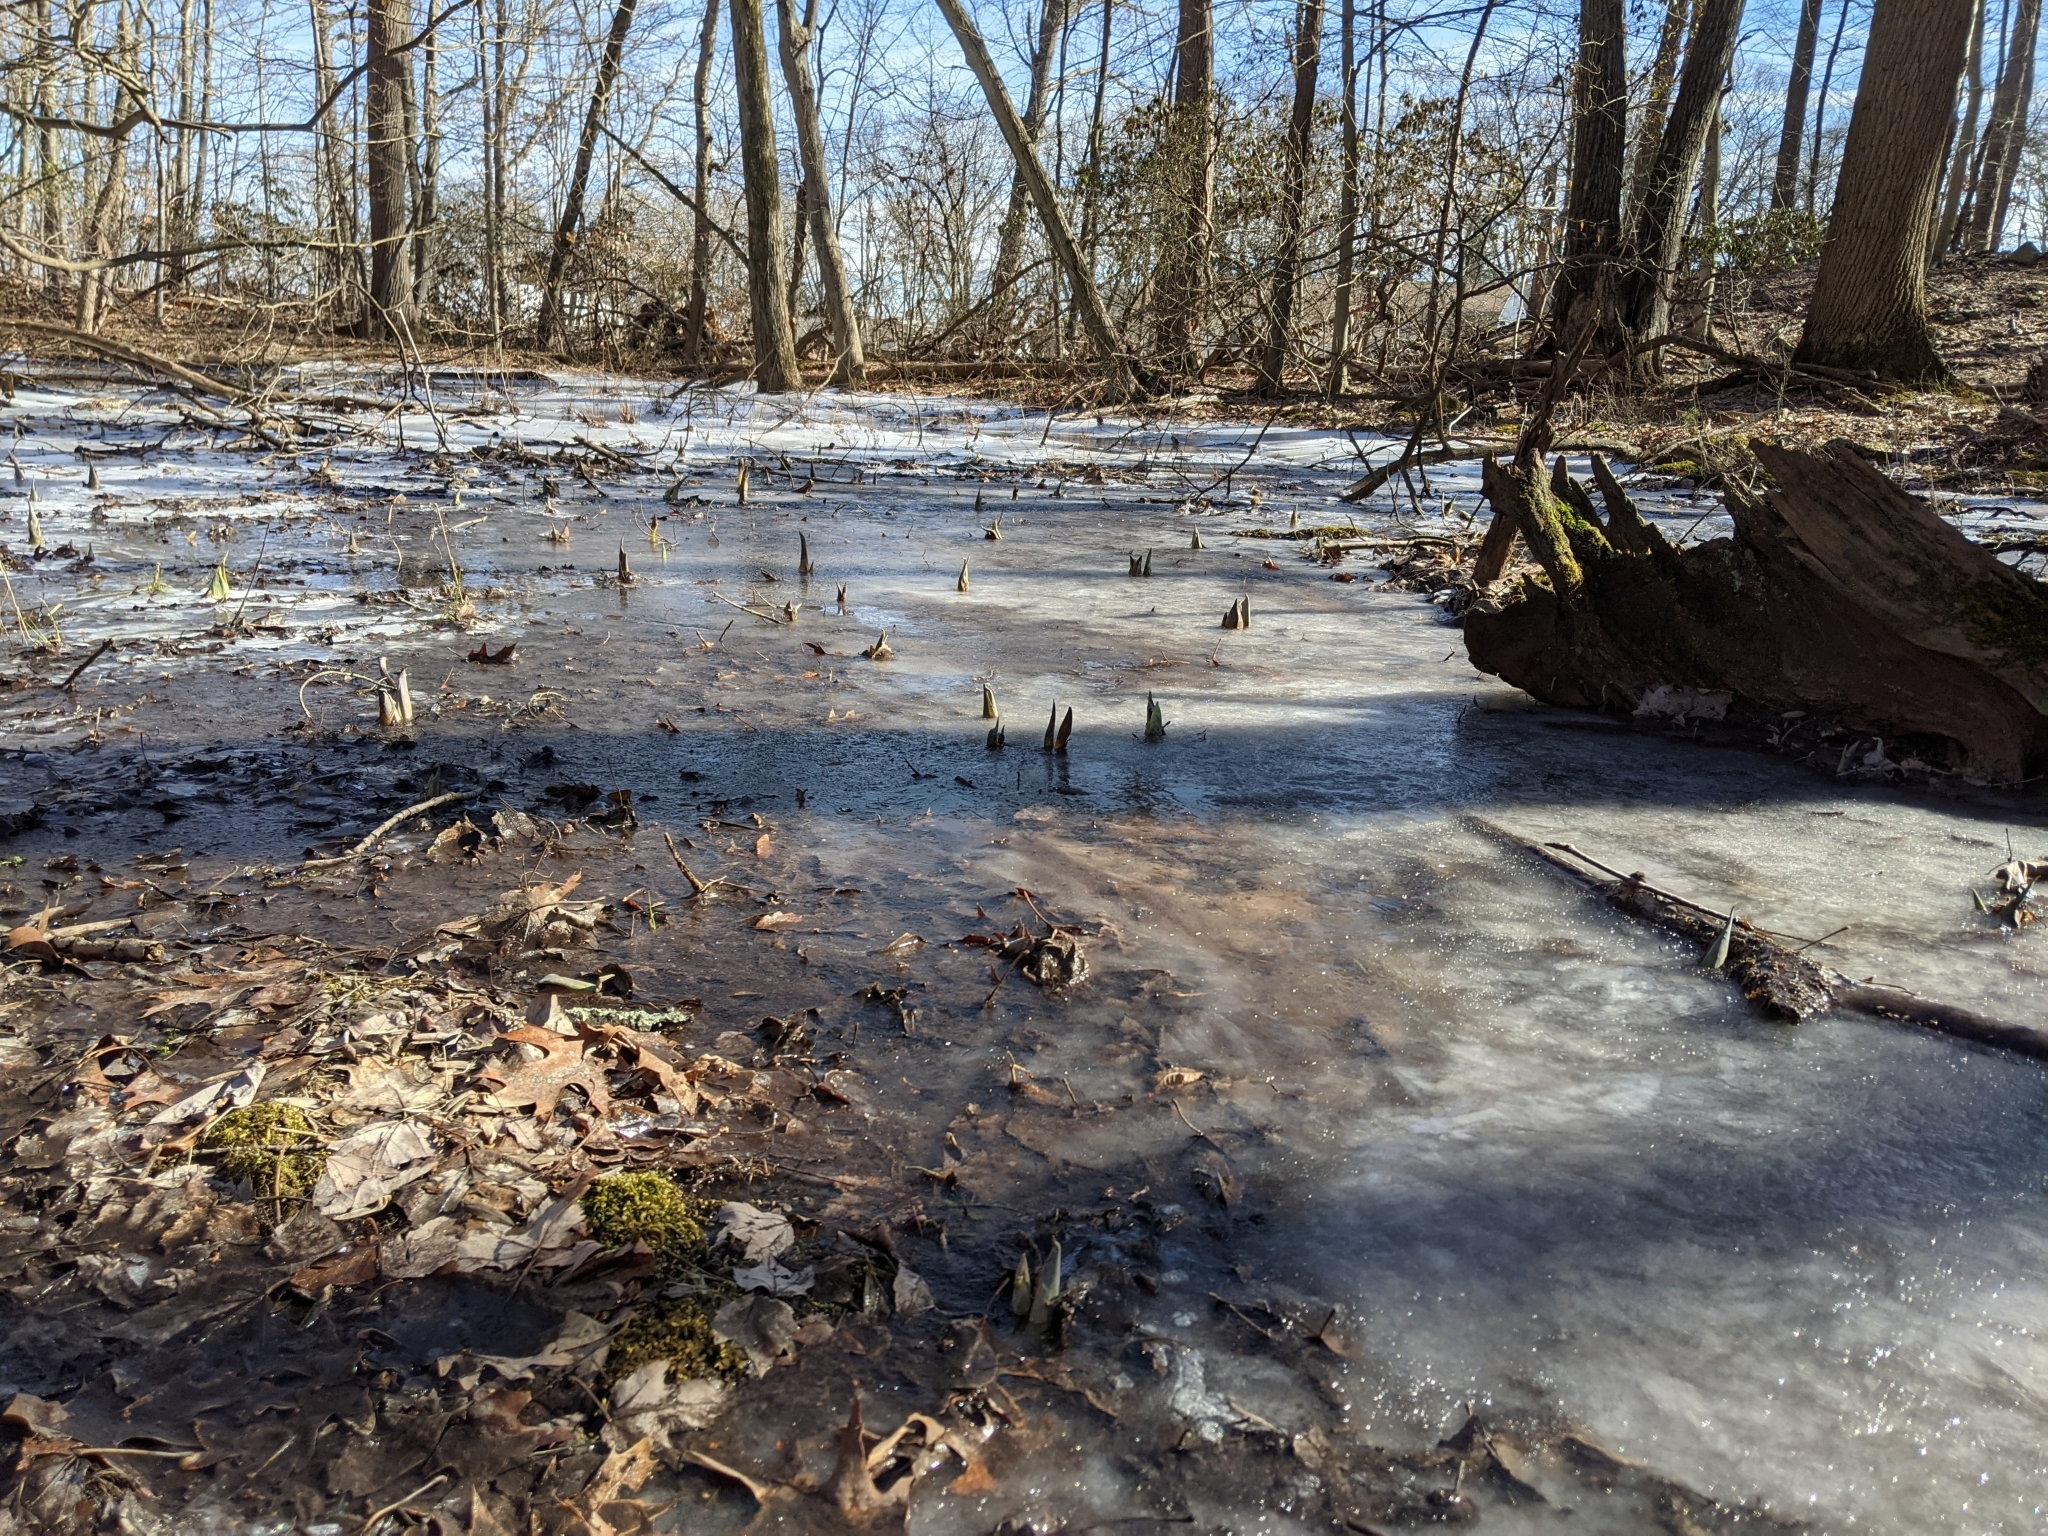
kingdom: Plantae
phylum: Tracheophyta
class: Liliopsida
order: Alismatales
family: Araceae
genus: Symplocarpus
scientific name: Symplocarpus foetidus
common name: Eastern skunk cabbage
